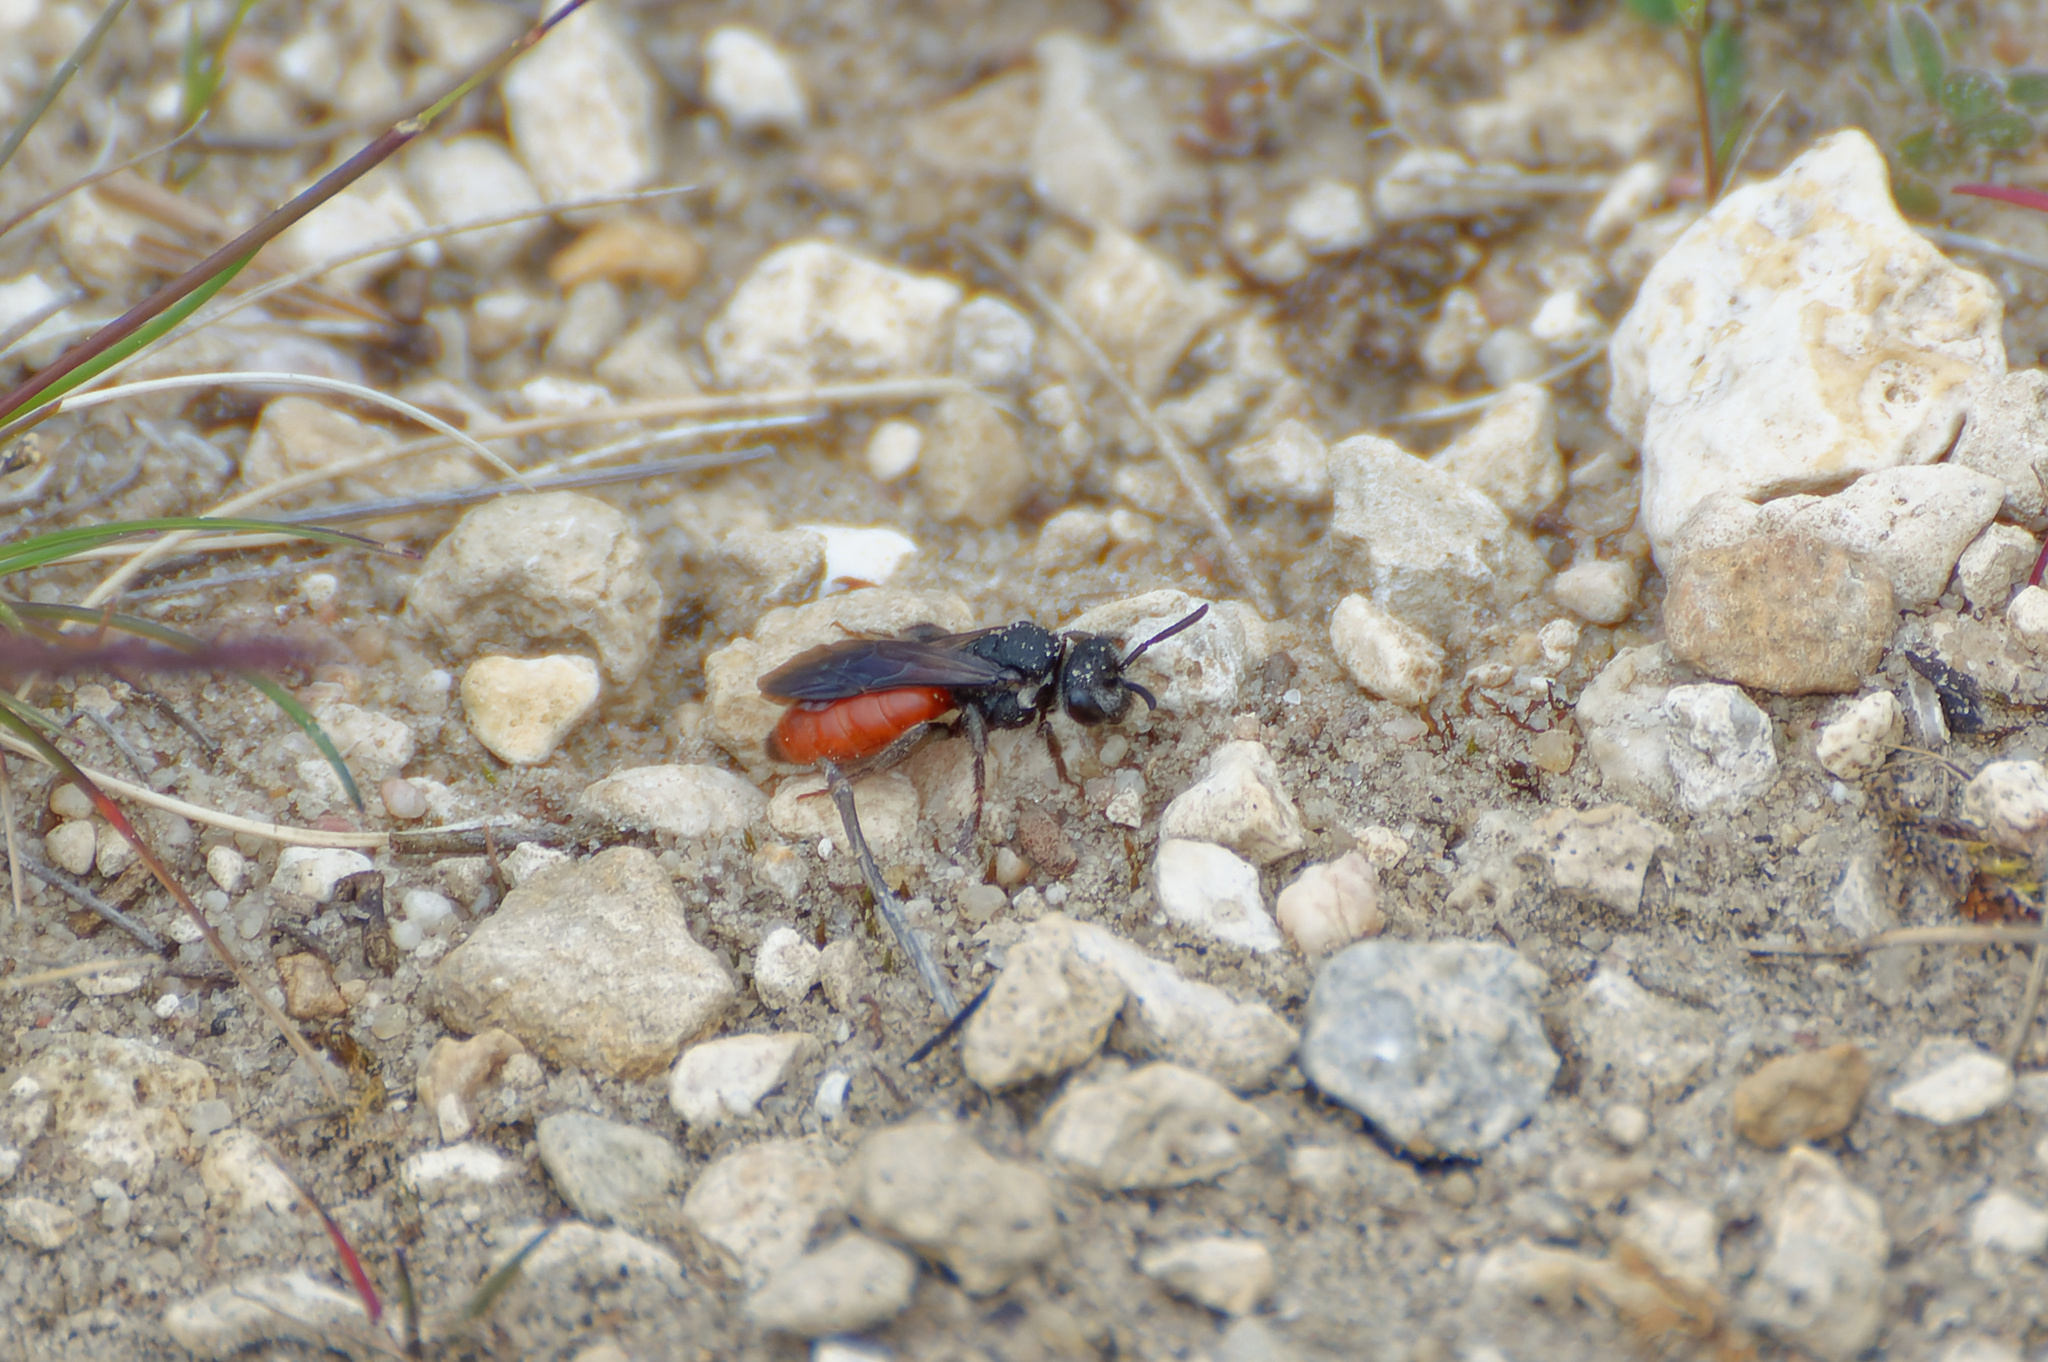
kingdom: Animalia
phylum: Arthropoda
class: Insecta
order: Hymenoptera
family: Halictidae
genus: Sphecodes
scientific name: Sphecodes albilabris
